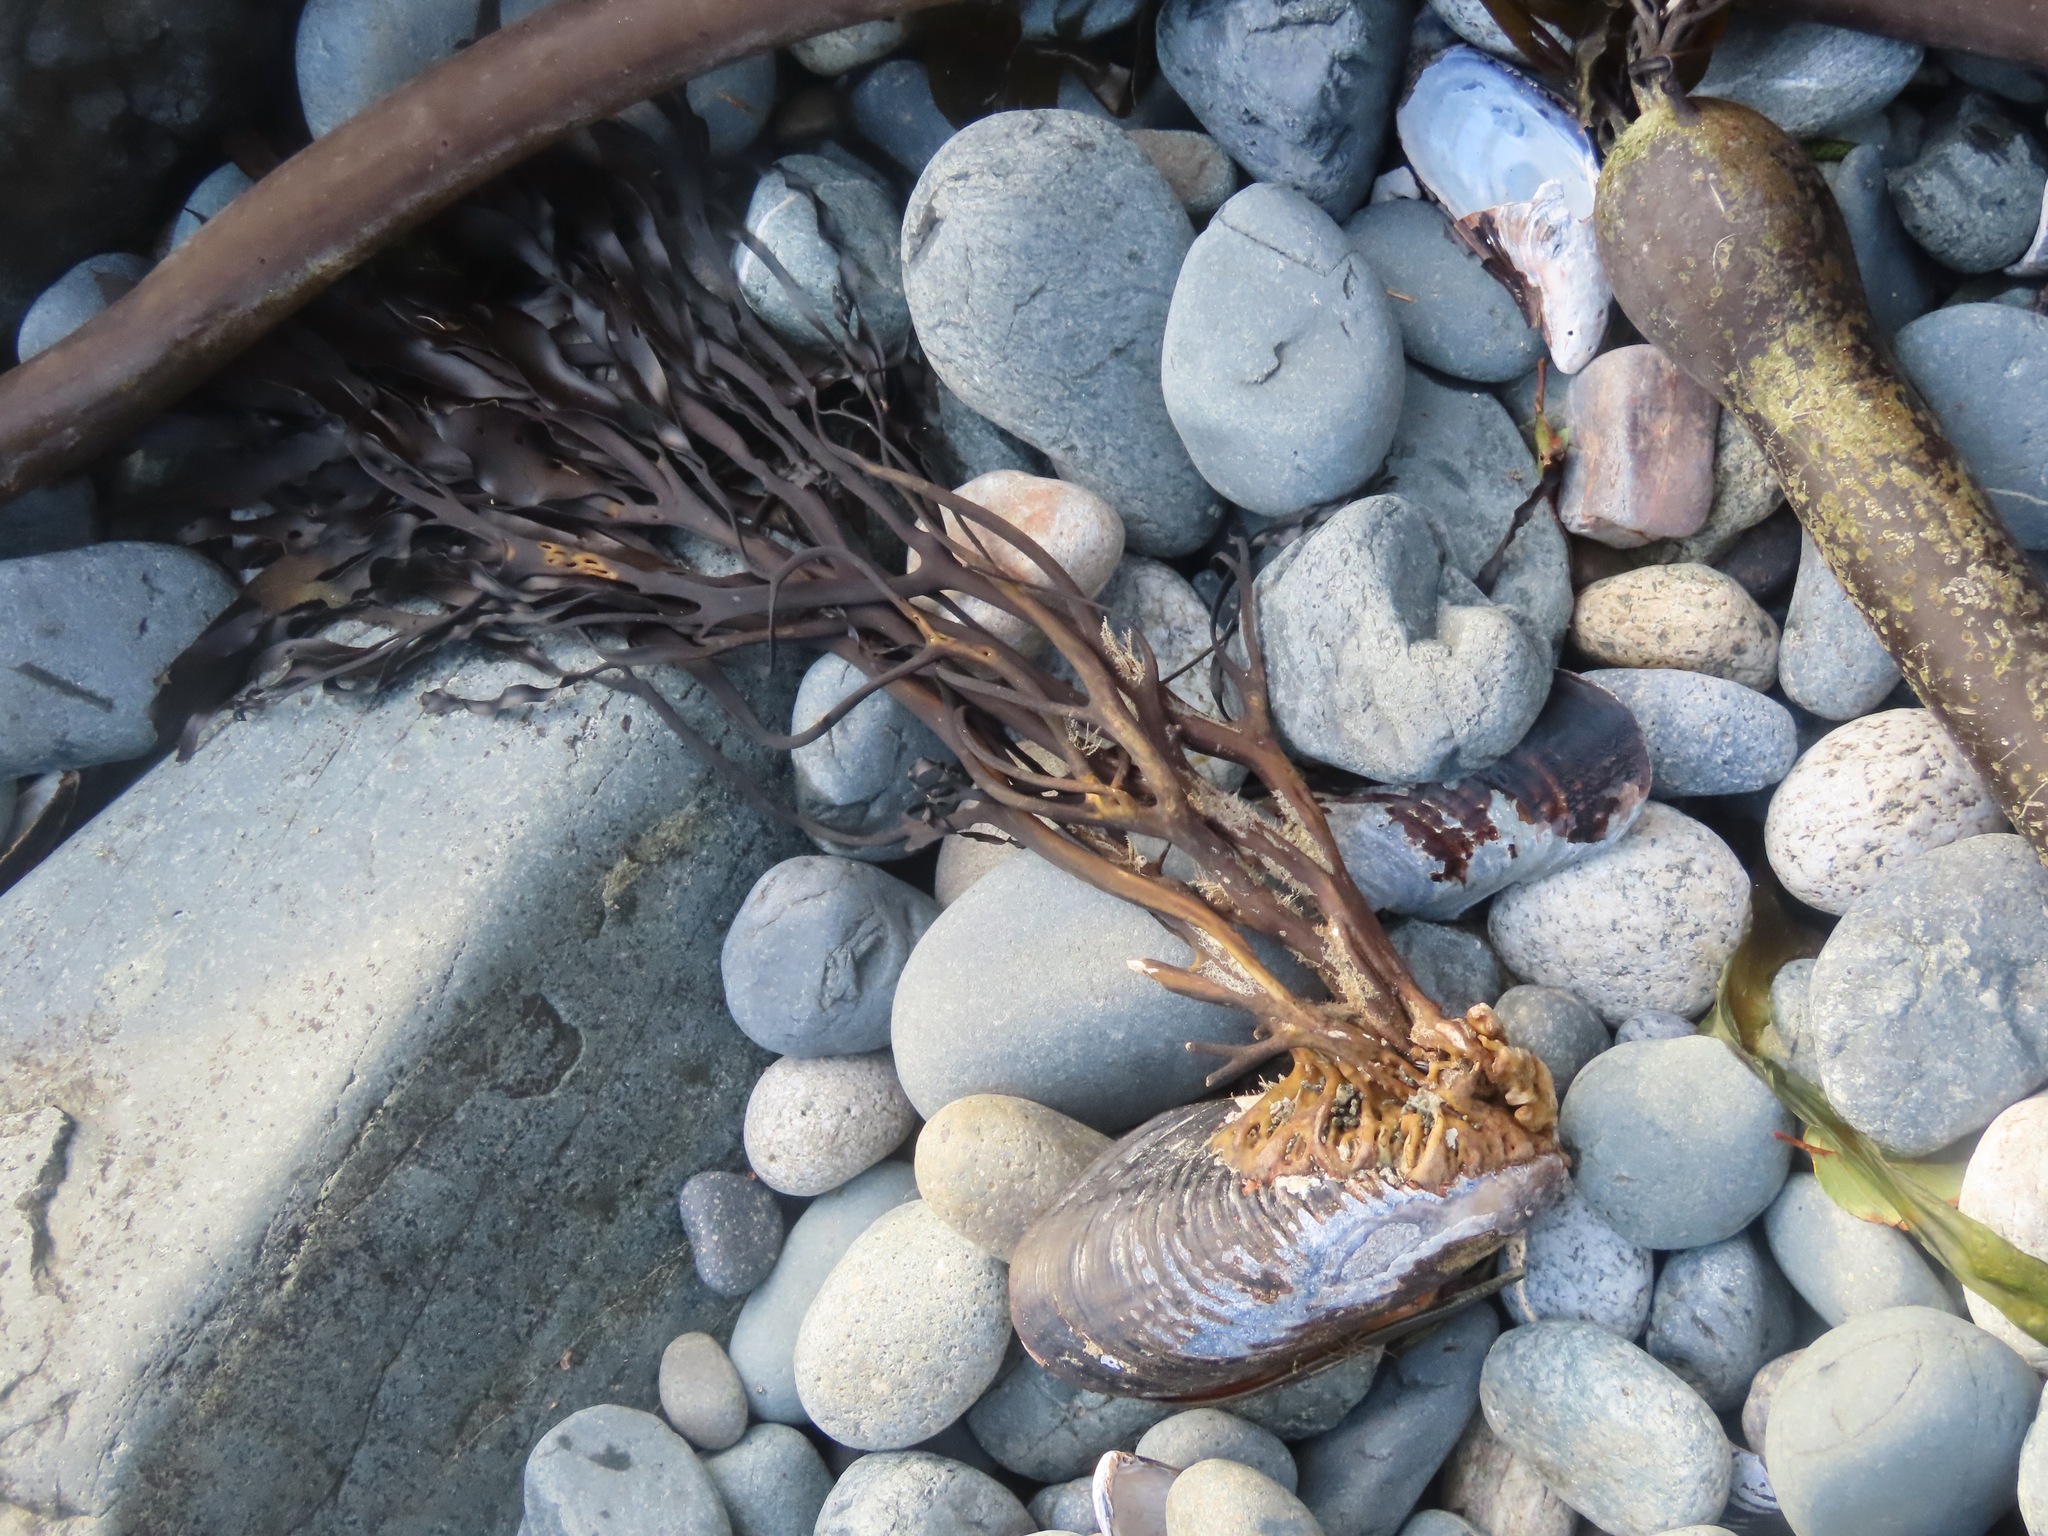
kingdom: Chromista
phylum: Ochrophyta
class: Phaeophyceae
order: Laminariales
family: Alariaceae
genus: Lessoniopsis
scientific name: Lessoniopsis littoralis
